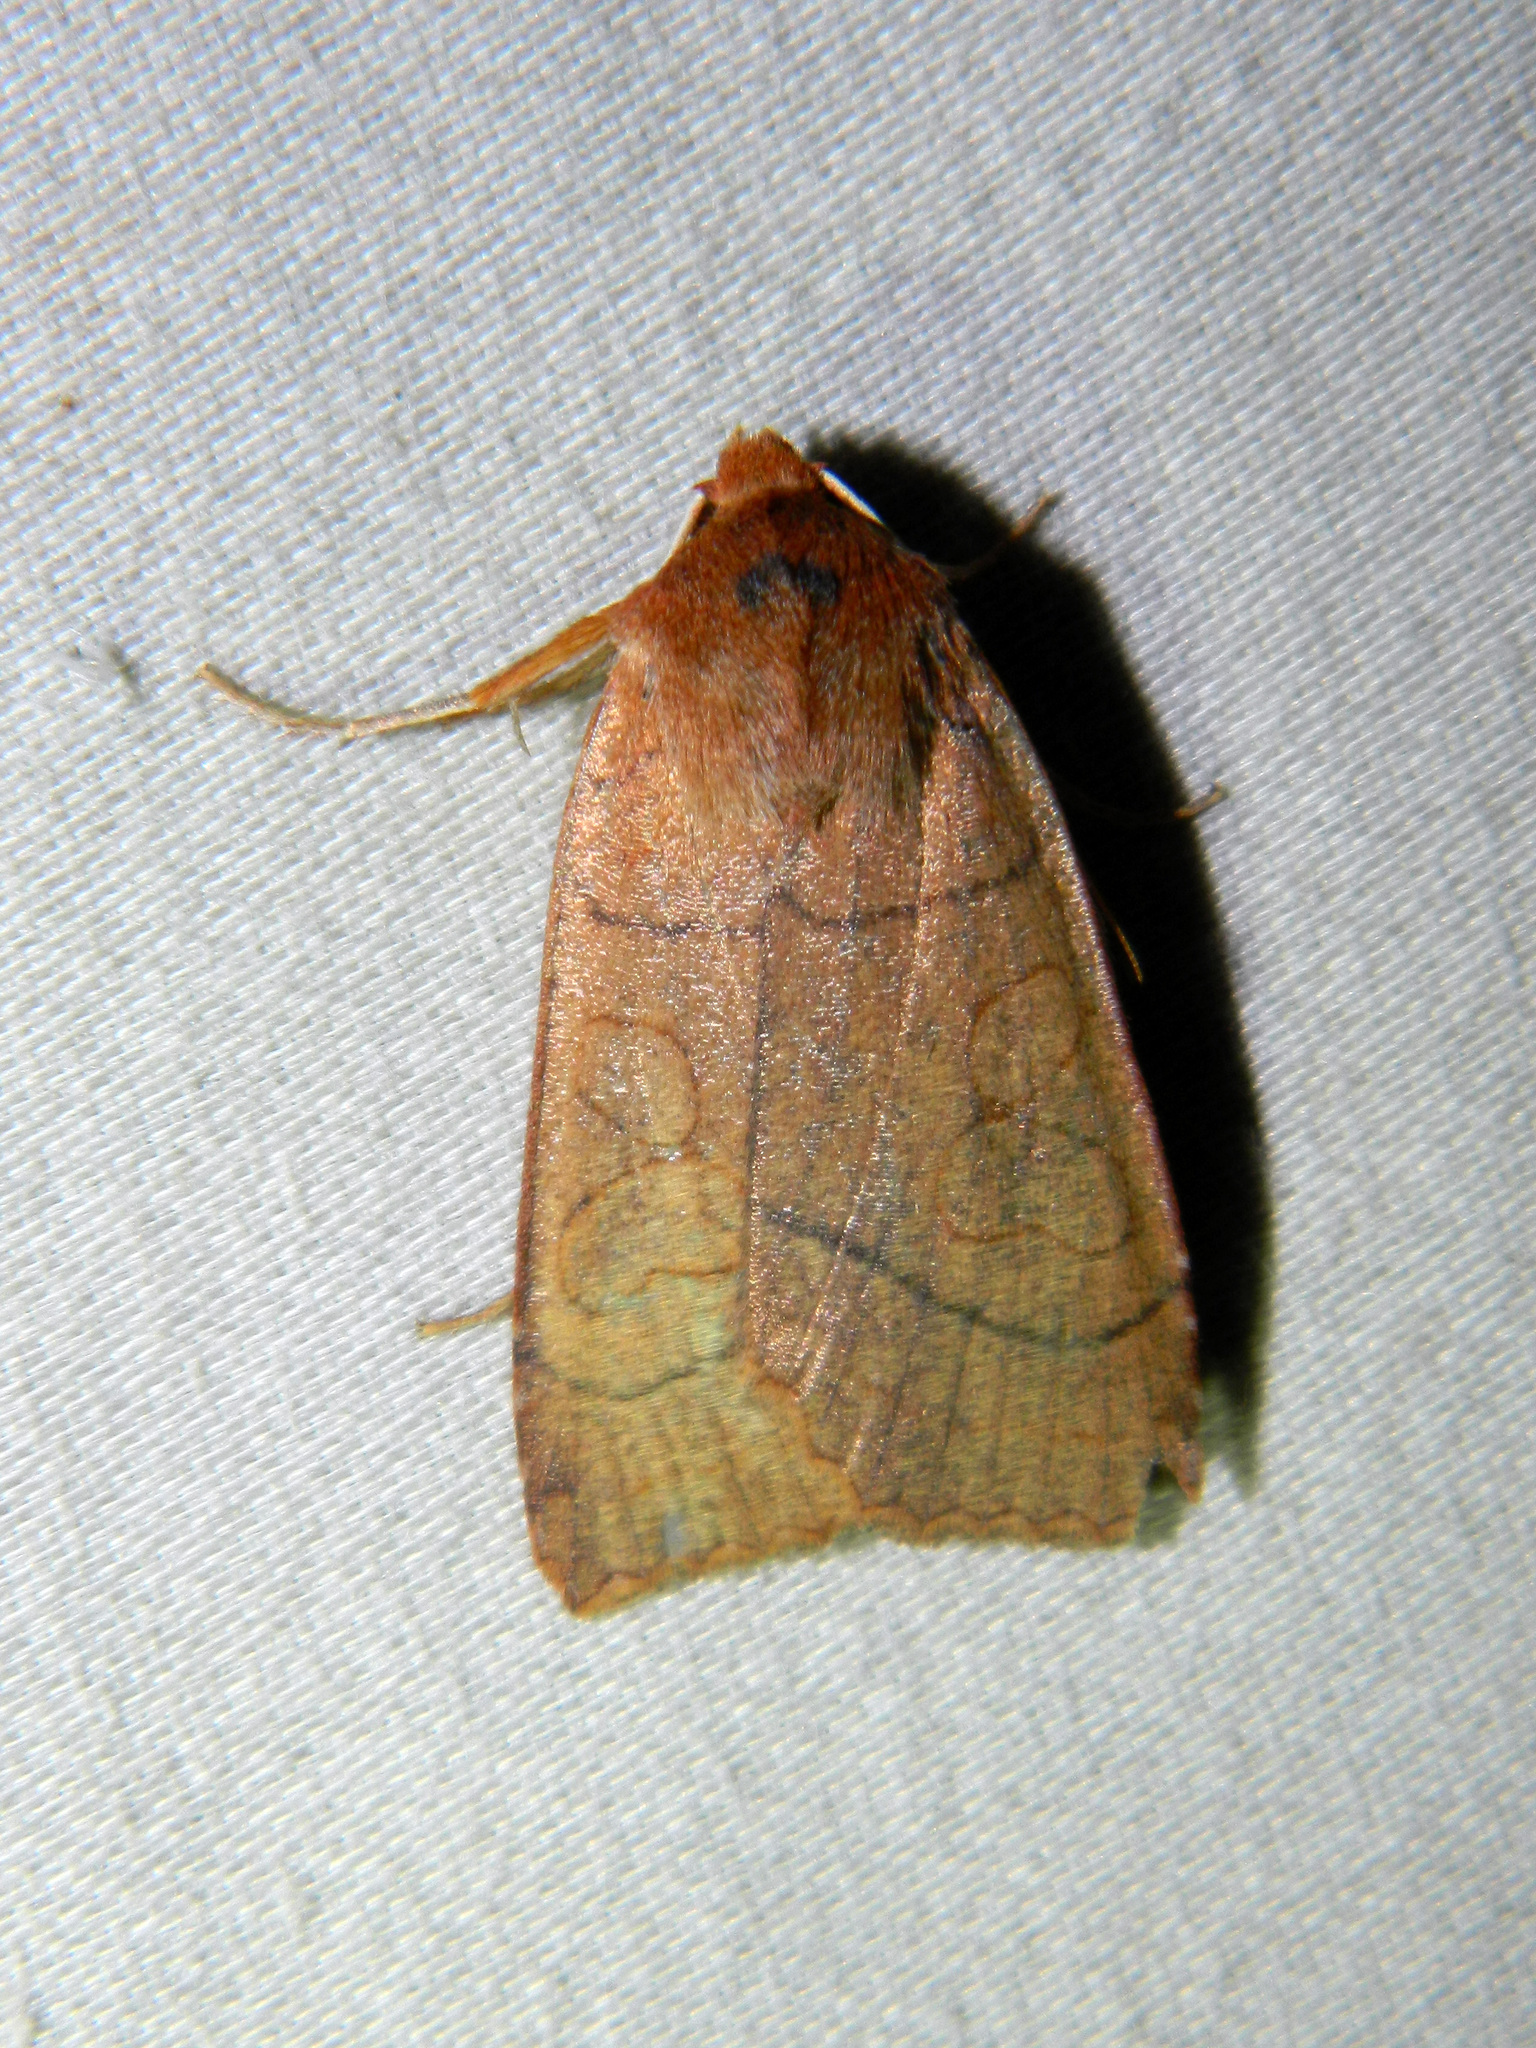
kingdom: Animalia
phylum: Arthropoda
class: Insecta
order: Lepidoptera
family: Noctuidae
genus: Metaxaglaea
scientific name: Metaxaglaea inulta
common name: Unsated sallow
